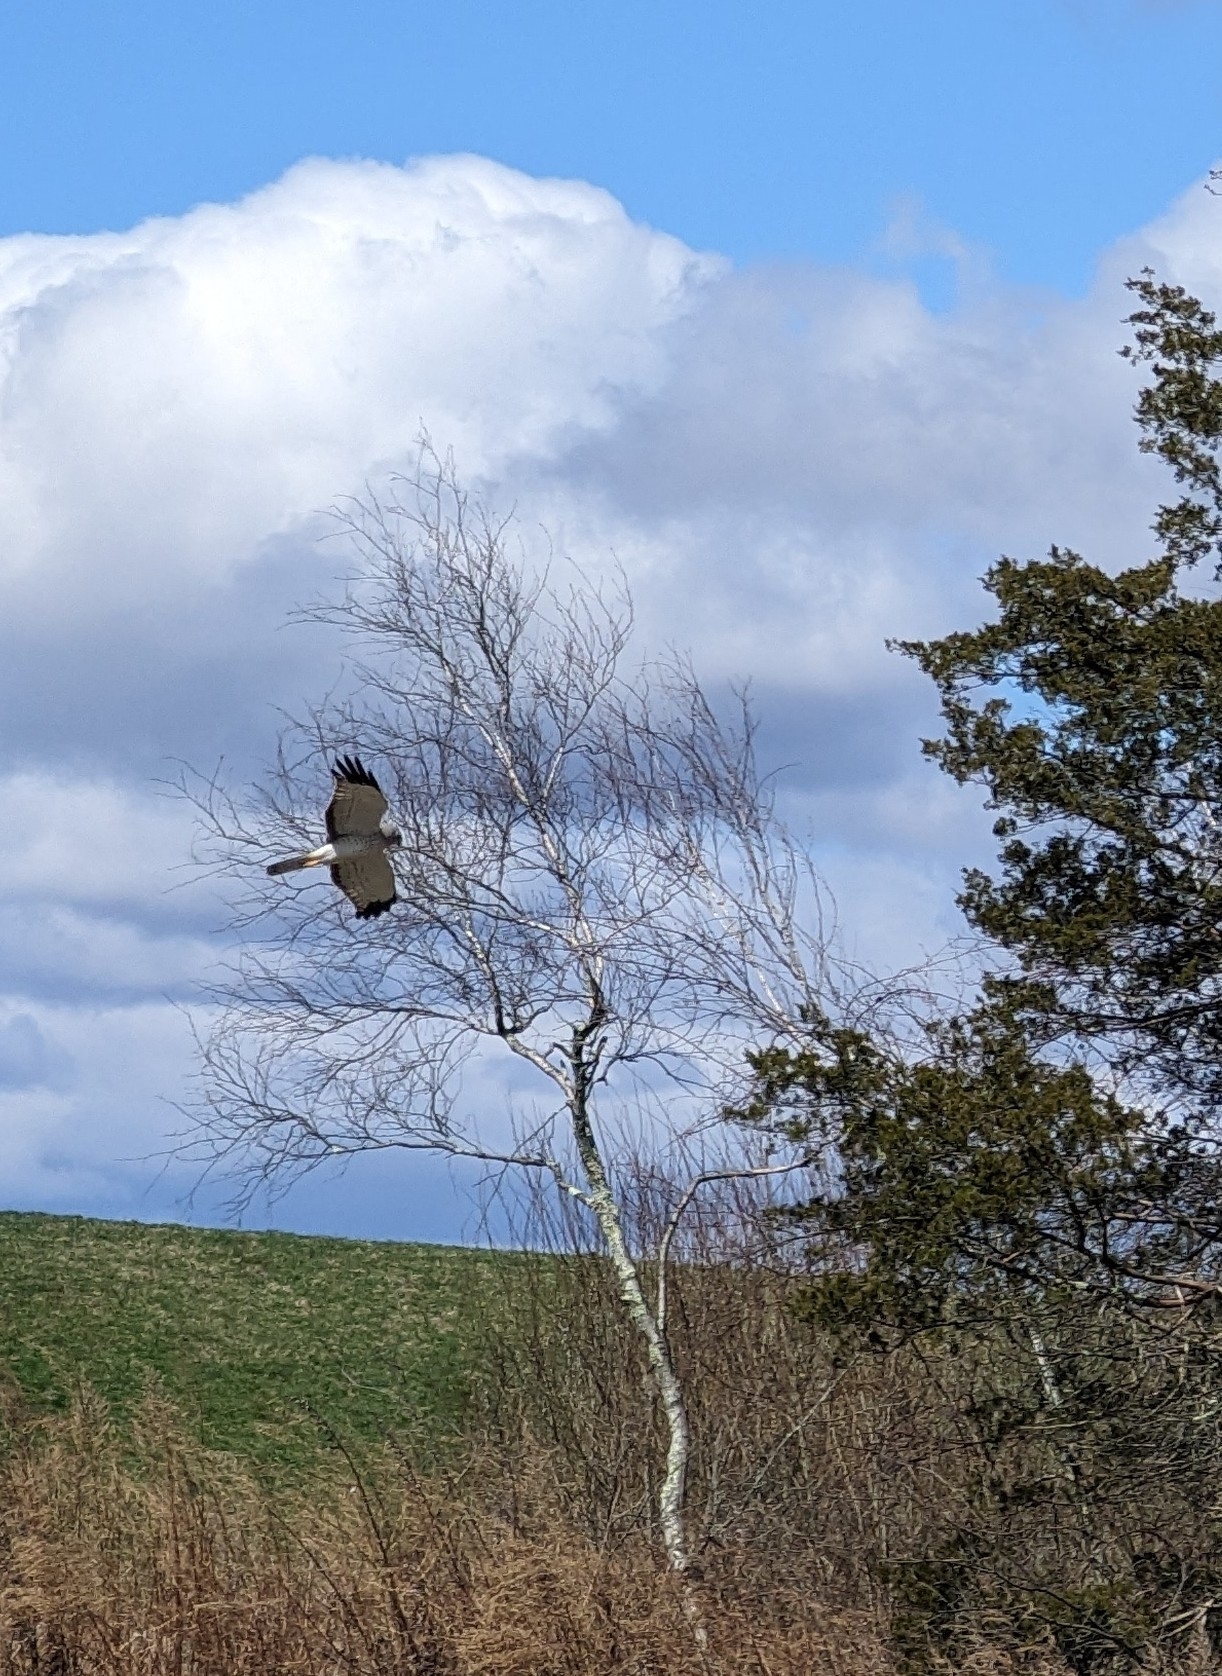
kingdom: Animalia
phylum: Chordata
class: Aves
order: Accipitriformes
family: Accipitridae
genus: Circus
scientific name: Circus cyaneus
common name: Hen harrier
